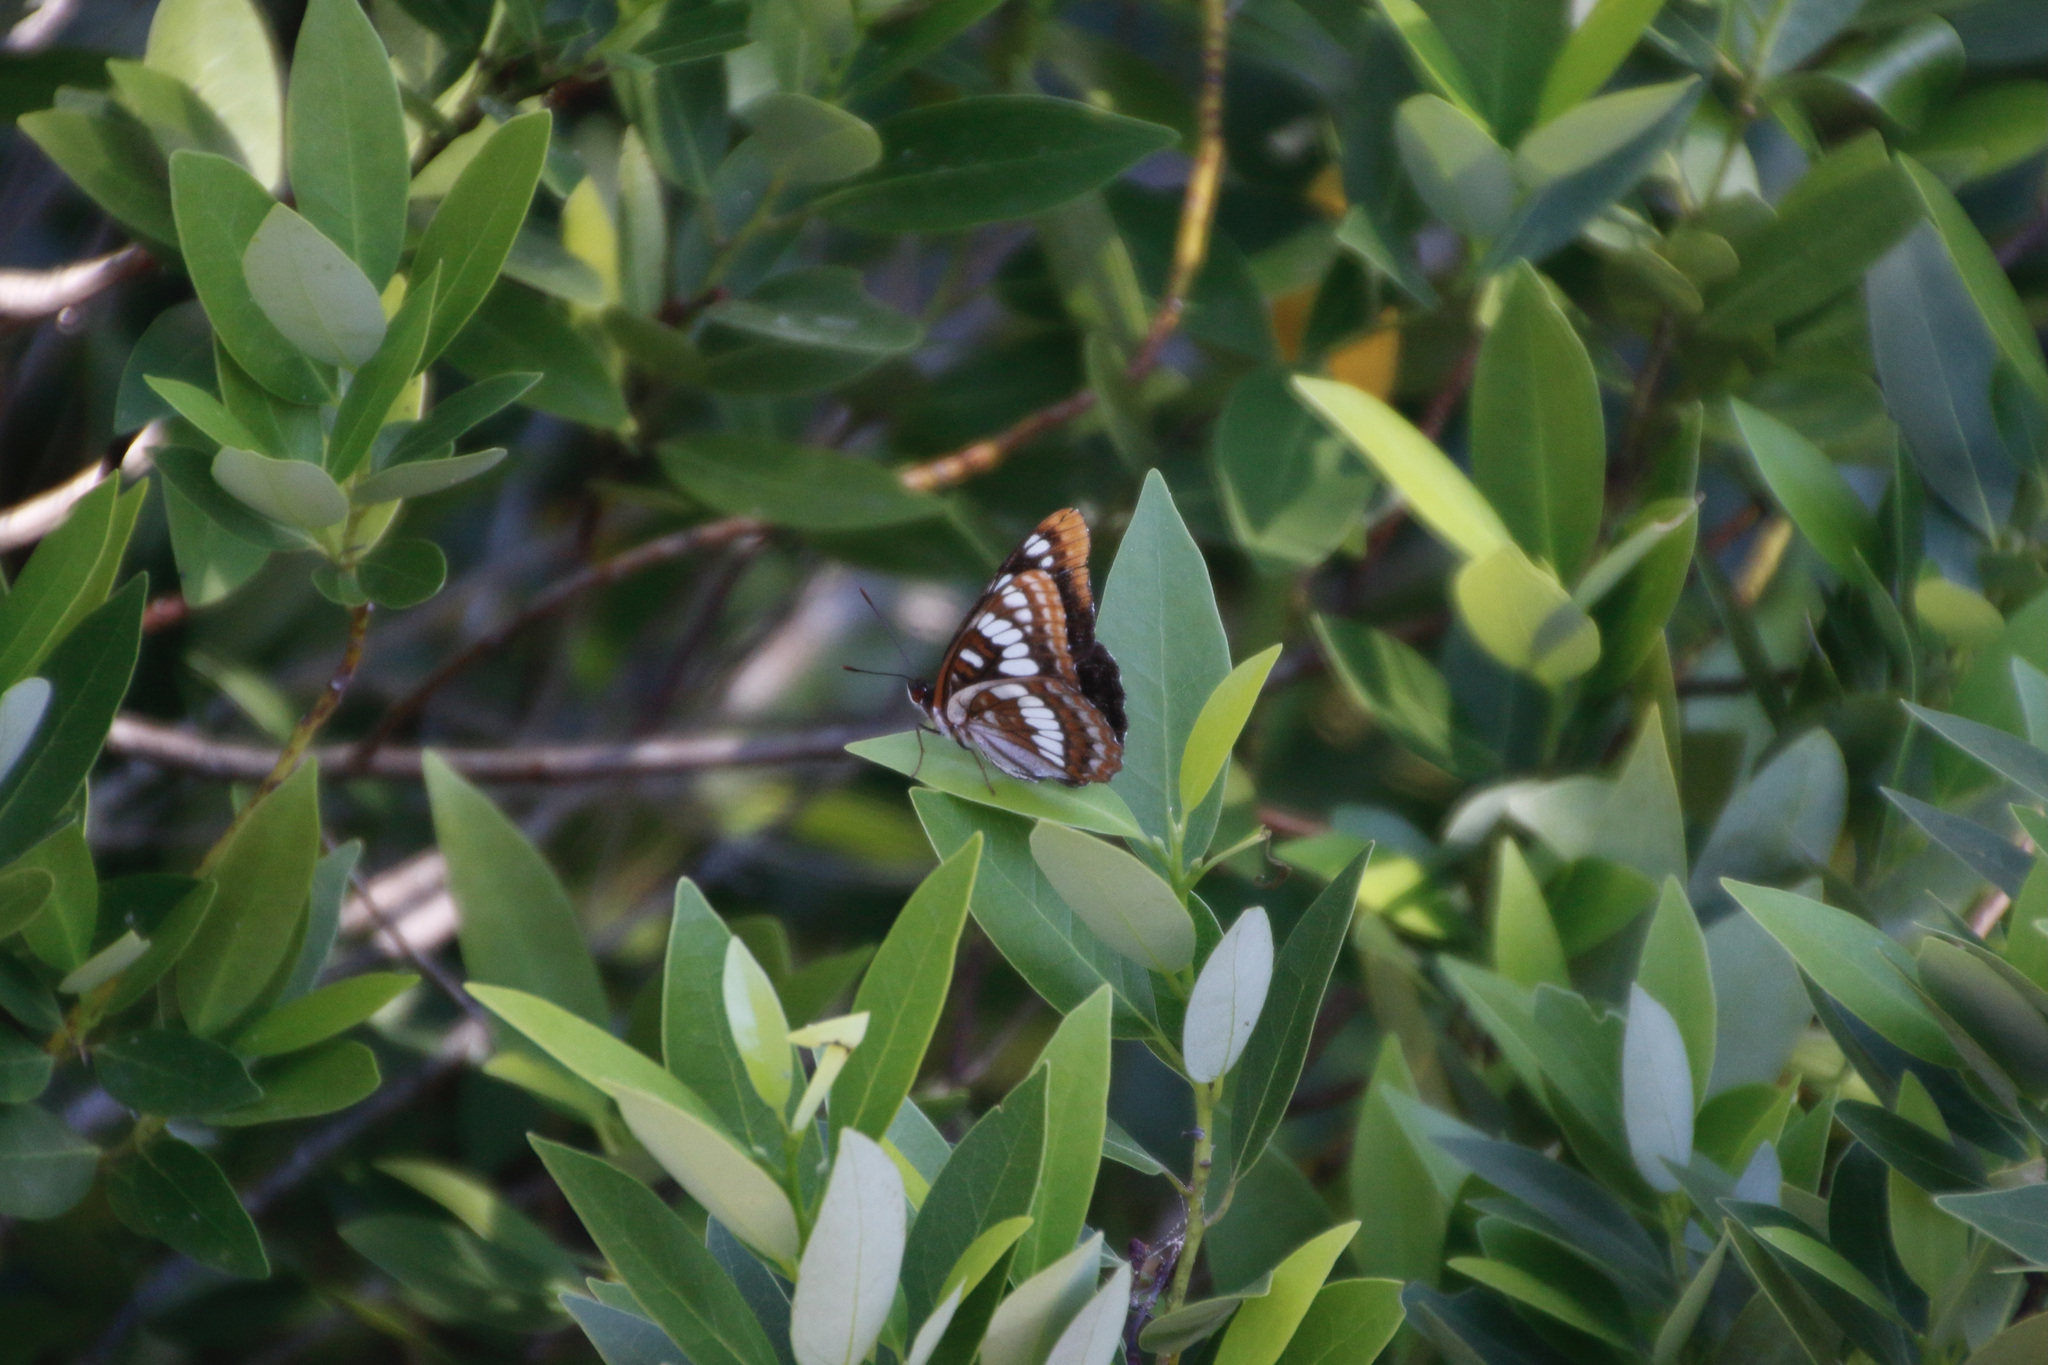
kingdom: Animalia
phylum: Arthropoda
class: Insecta
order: Lepidoptera
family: Nymphalidae
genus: Limenitis
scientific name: Limenitis lorquini
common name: Lorquin's admiral
